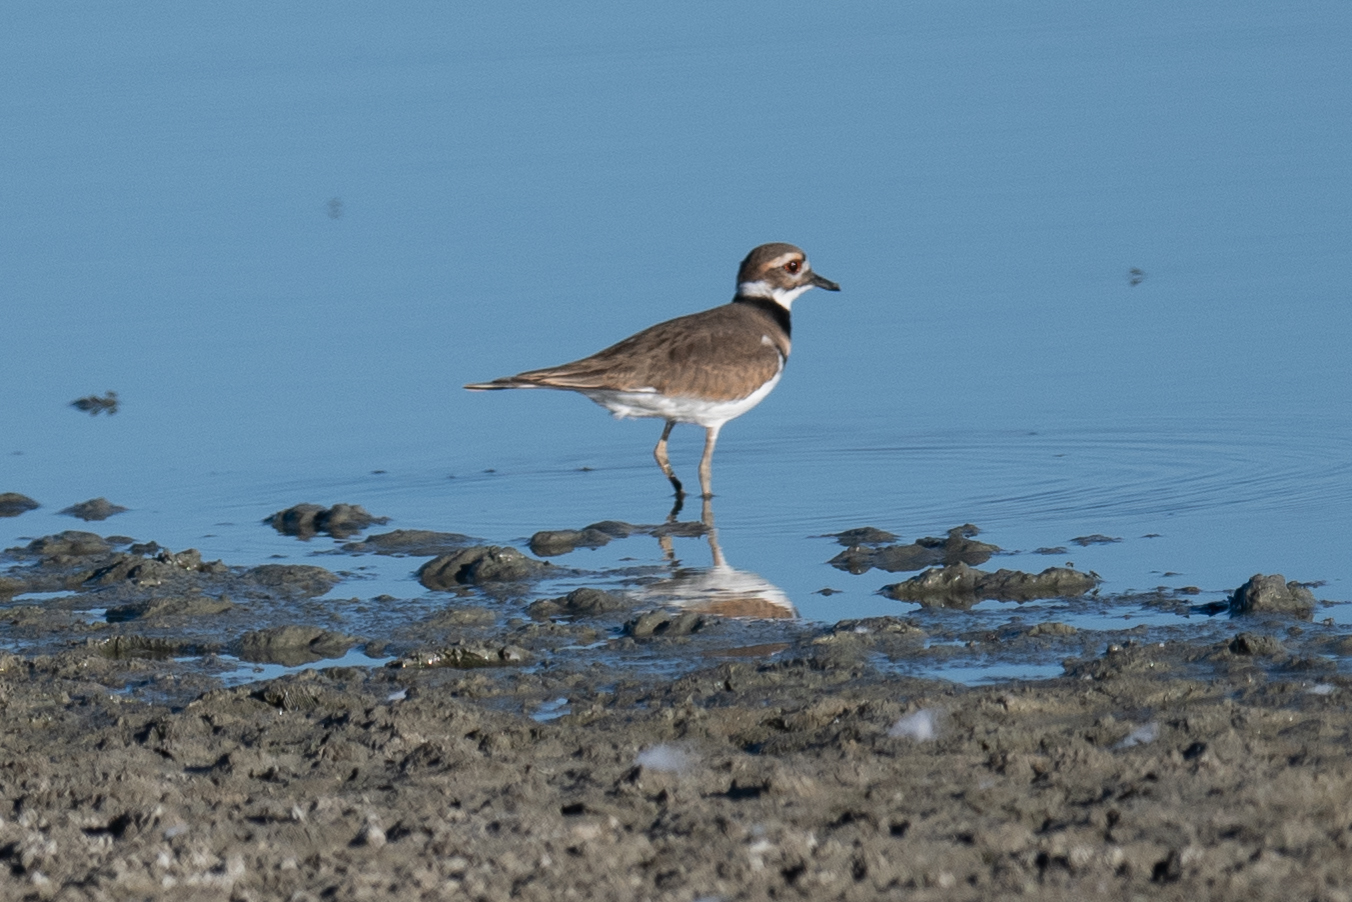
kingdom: Animalia
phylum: Chordata
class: Aves
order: Charadriiformes
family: Charadriidae
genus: Charadrius
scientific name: Charadrius vociferus
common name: Killdeer
